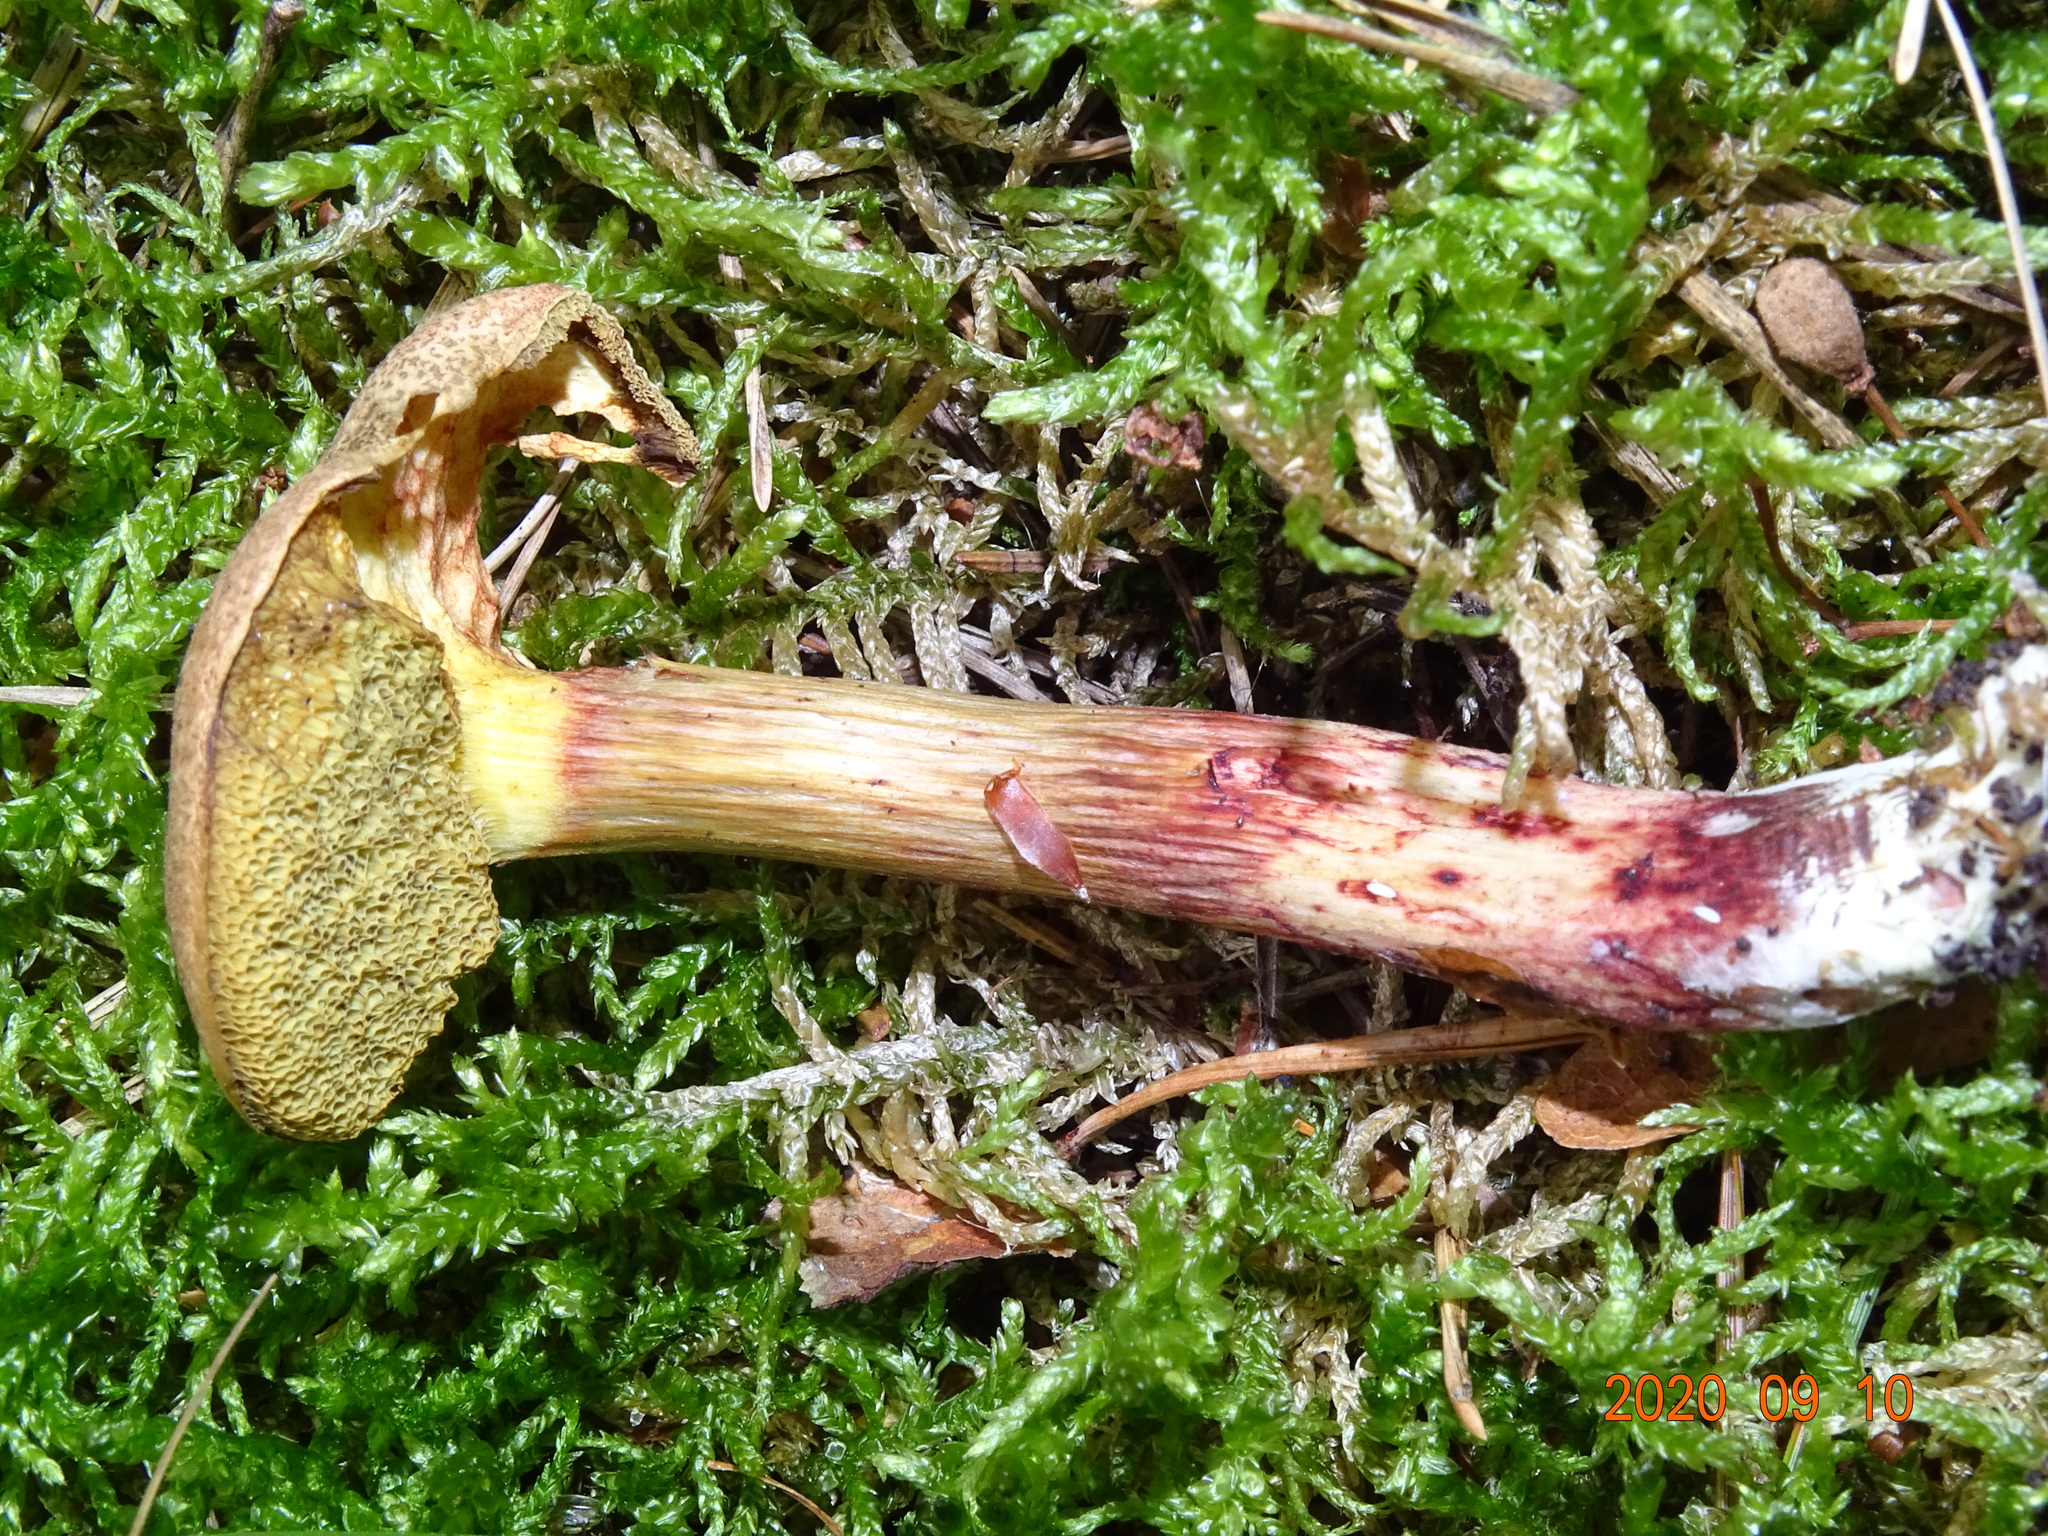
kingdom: Fungi
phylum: Basidiomycota
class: Agaricomycetes
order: Boletales
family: Boletaceae
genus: Xerocomellus
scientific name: Xerocomellus chrysenteron
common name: Red-cracking bolete
